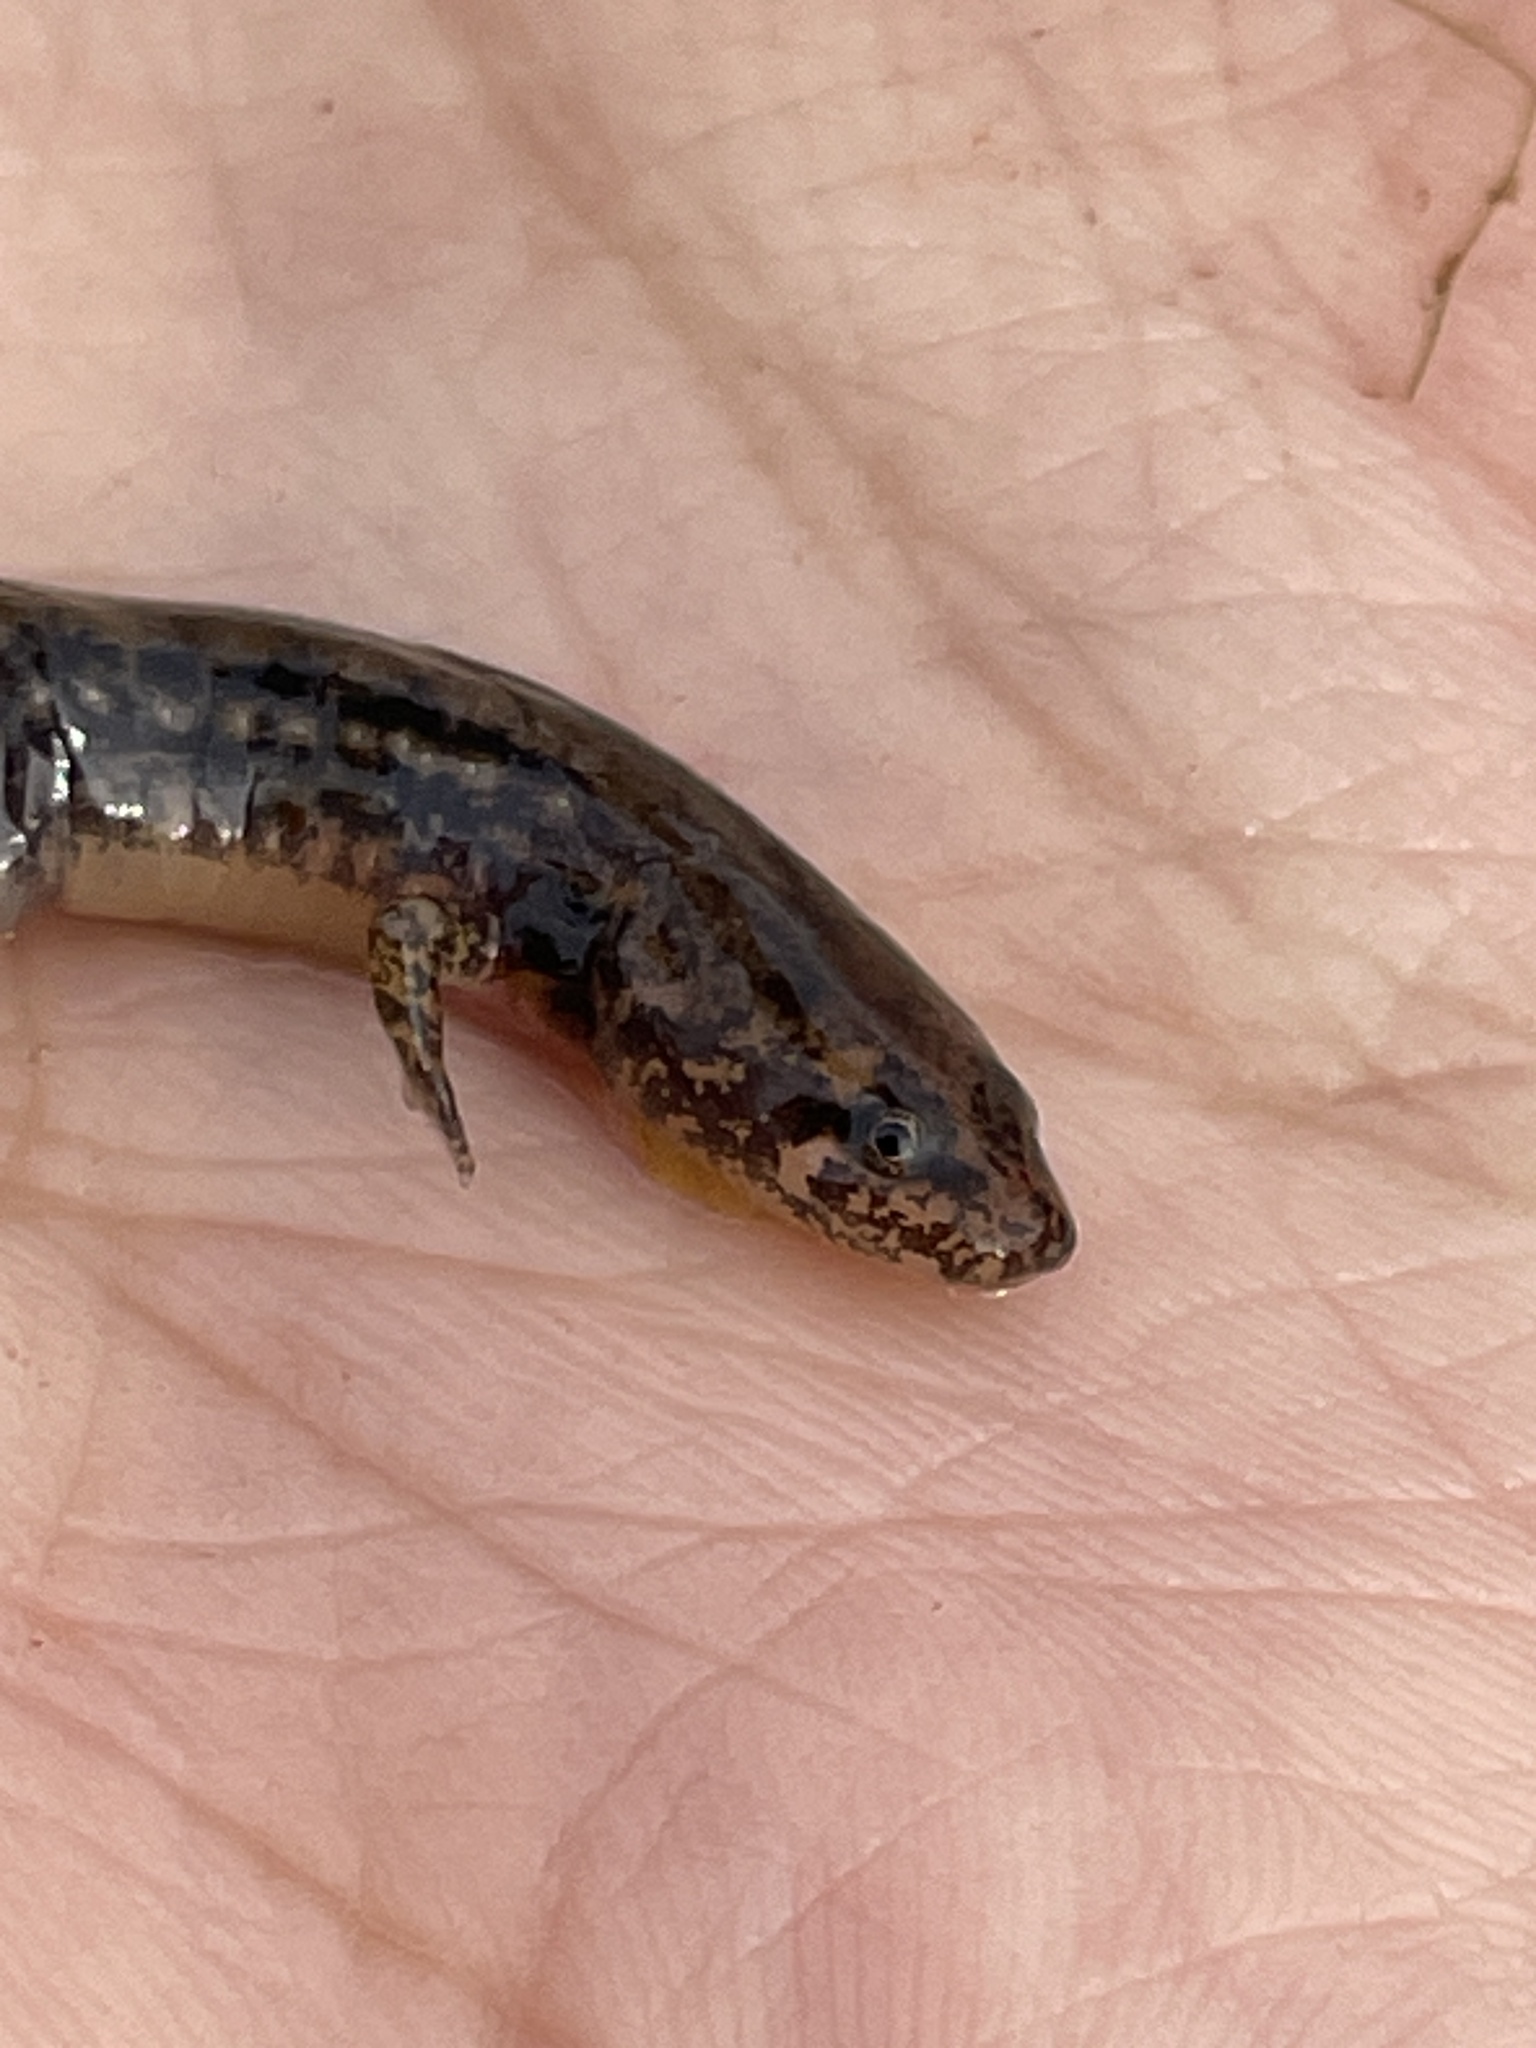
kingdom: Animalia
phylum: Chordata
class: Amphibia
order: Caudata
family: Plethodontidae
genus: Eurycea
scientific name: Eurycea cirrigera
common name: Southern two-lined salamander
